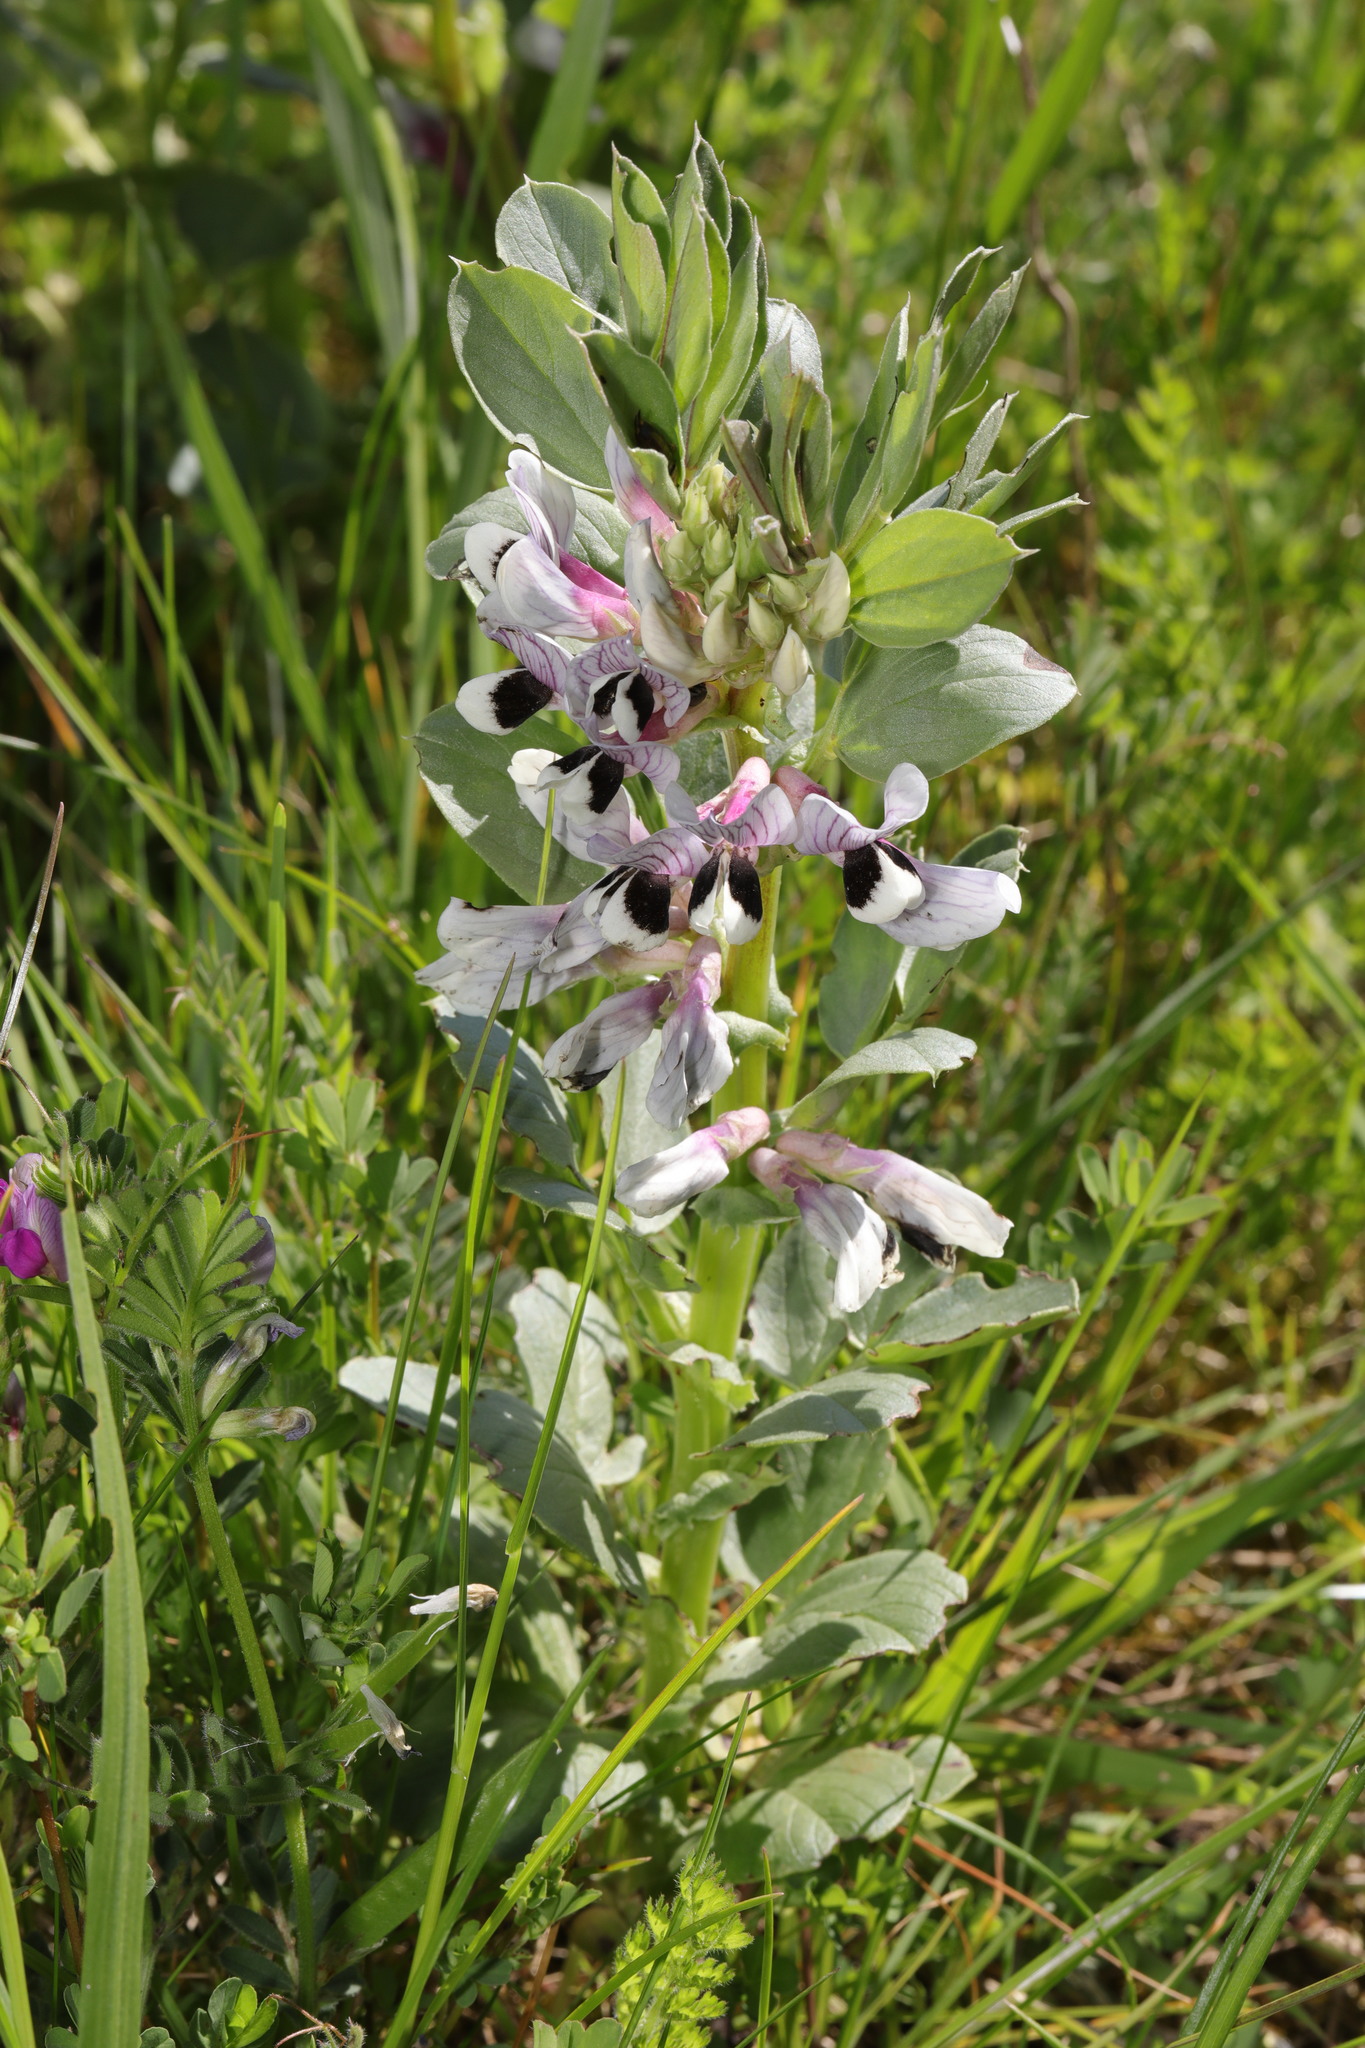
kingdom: Plantae
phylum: Tracheophyta
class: Magnoliopsida
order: Fabales
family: Fabaceae
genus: Vicia
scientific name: Vicia faba
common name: Broad bean
